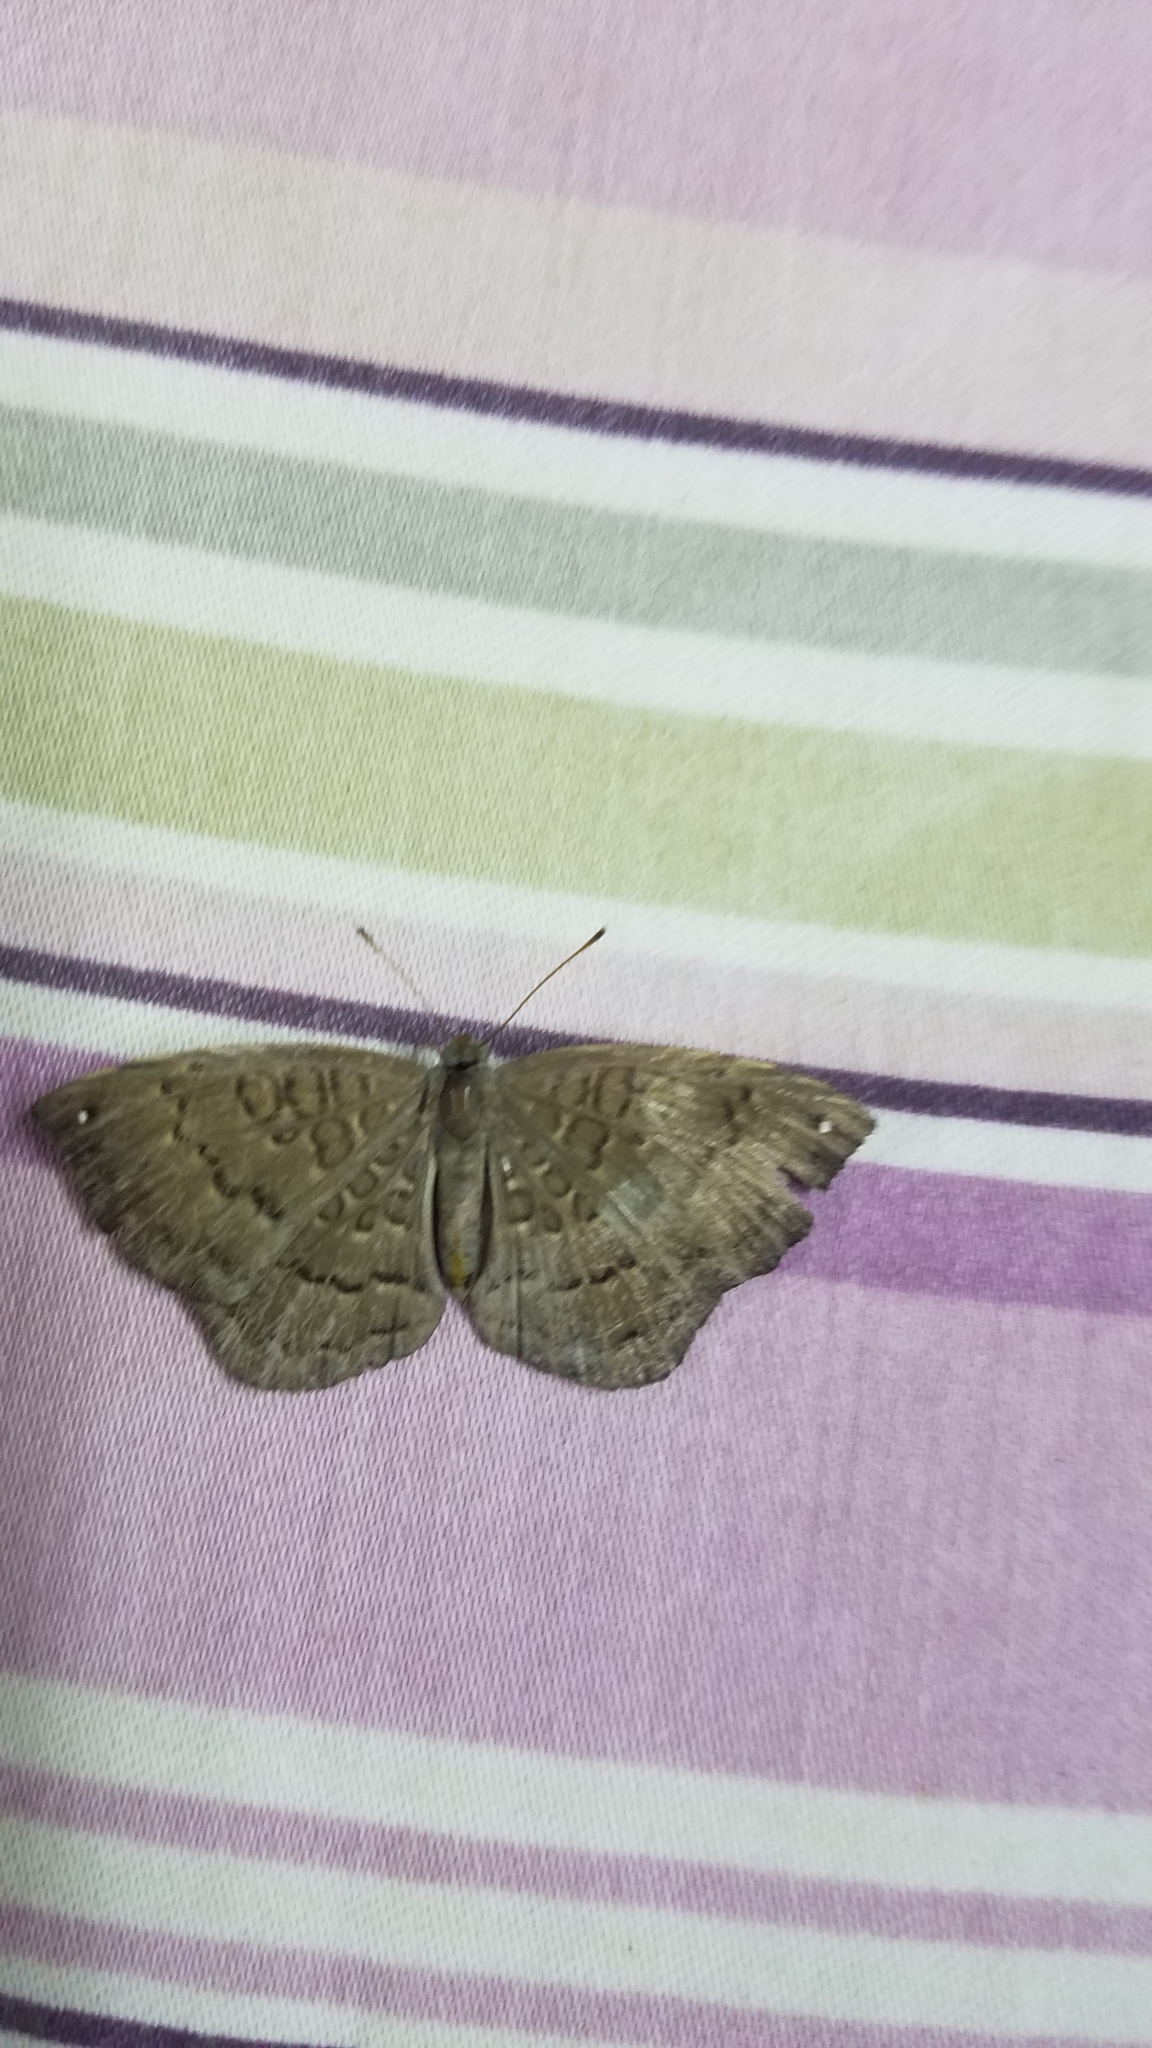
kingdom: Animalia
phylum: Arthropoda
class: Insecta
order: Lepidoptera
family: Riodinidae
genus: Voltinia
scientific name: Voltinia umbra
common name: Quilted metalmark
